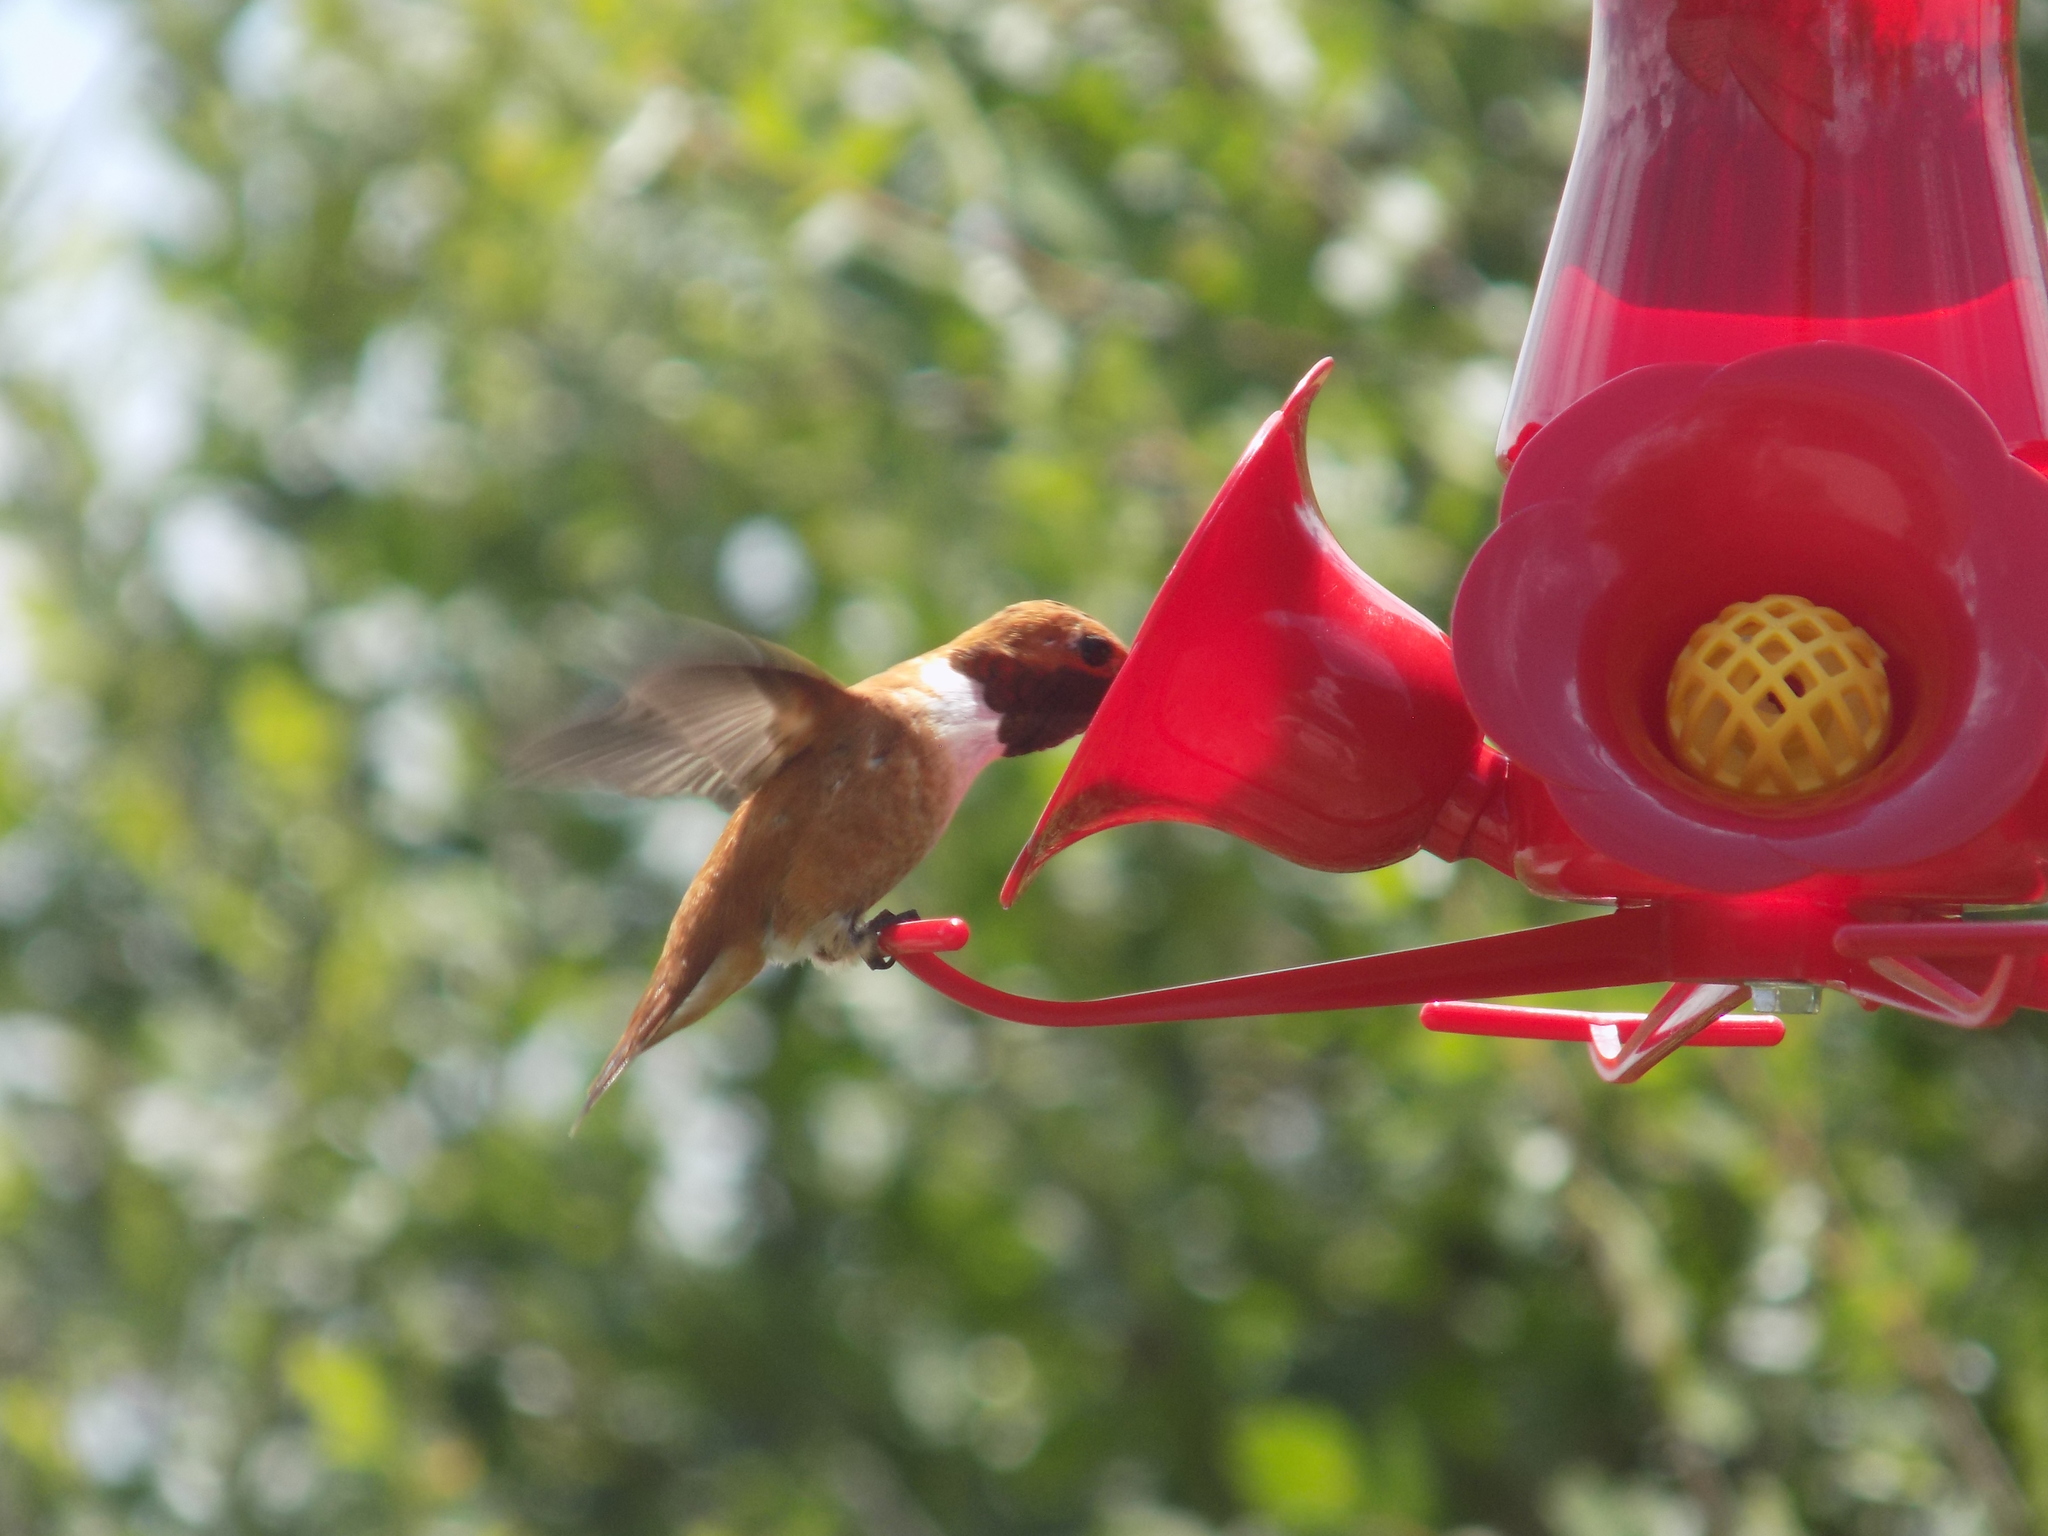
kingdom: Animalia
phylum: Chordata
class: Aves
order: Apodiformes
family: Trochilidae
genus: Selasphorus
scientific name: Selasphorus rufus
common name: Rufous hummingbird
